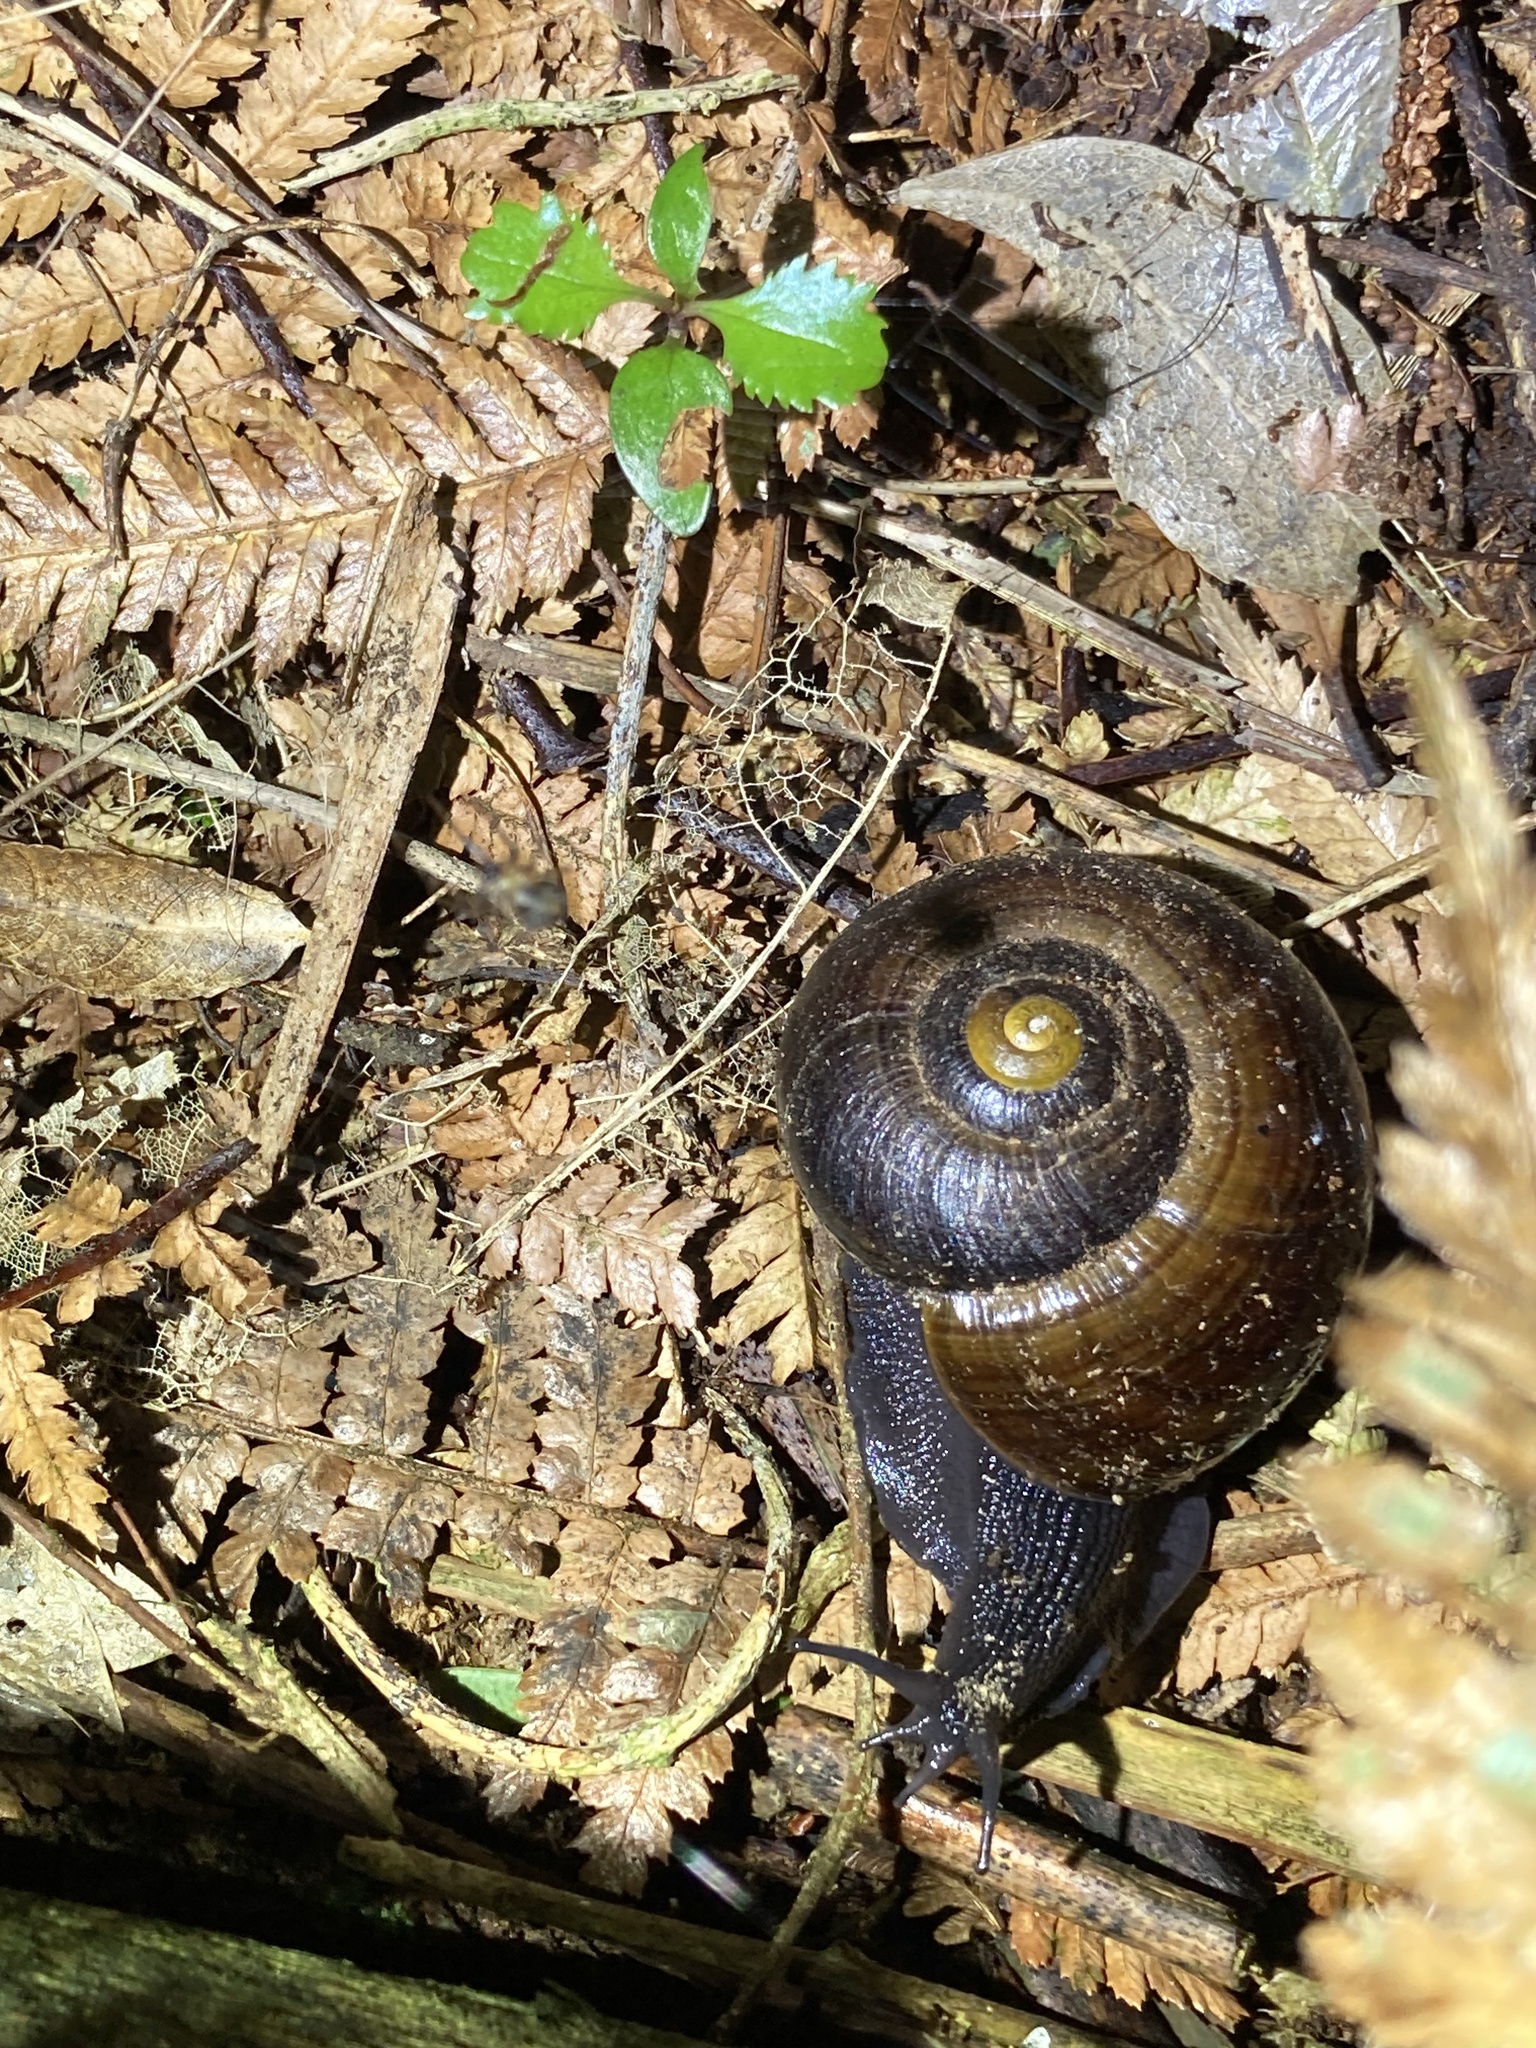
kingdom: Animalia
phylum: Mollusca
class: Gastropoda
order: Stylommatophora
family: Rhytididae
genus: Powelliphanta
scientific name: Powelliphanta traversi
